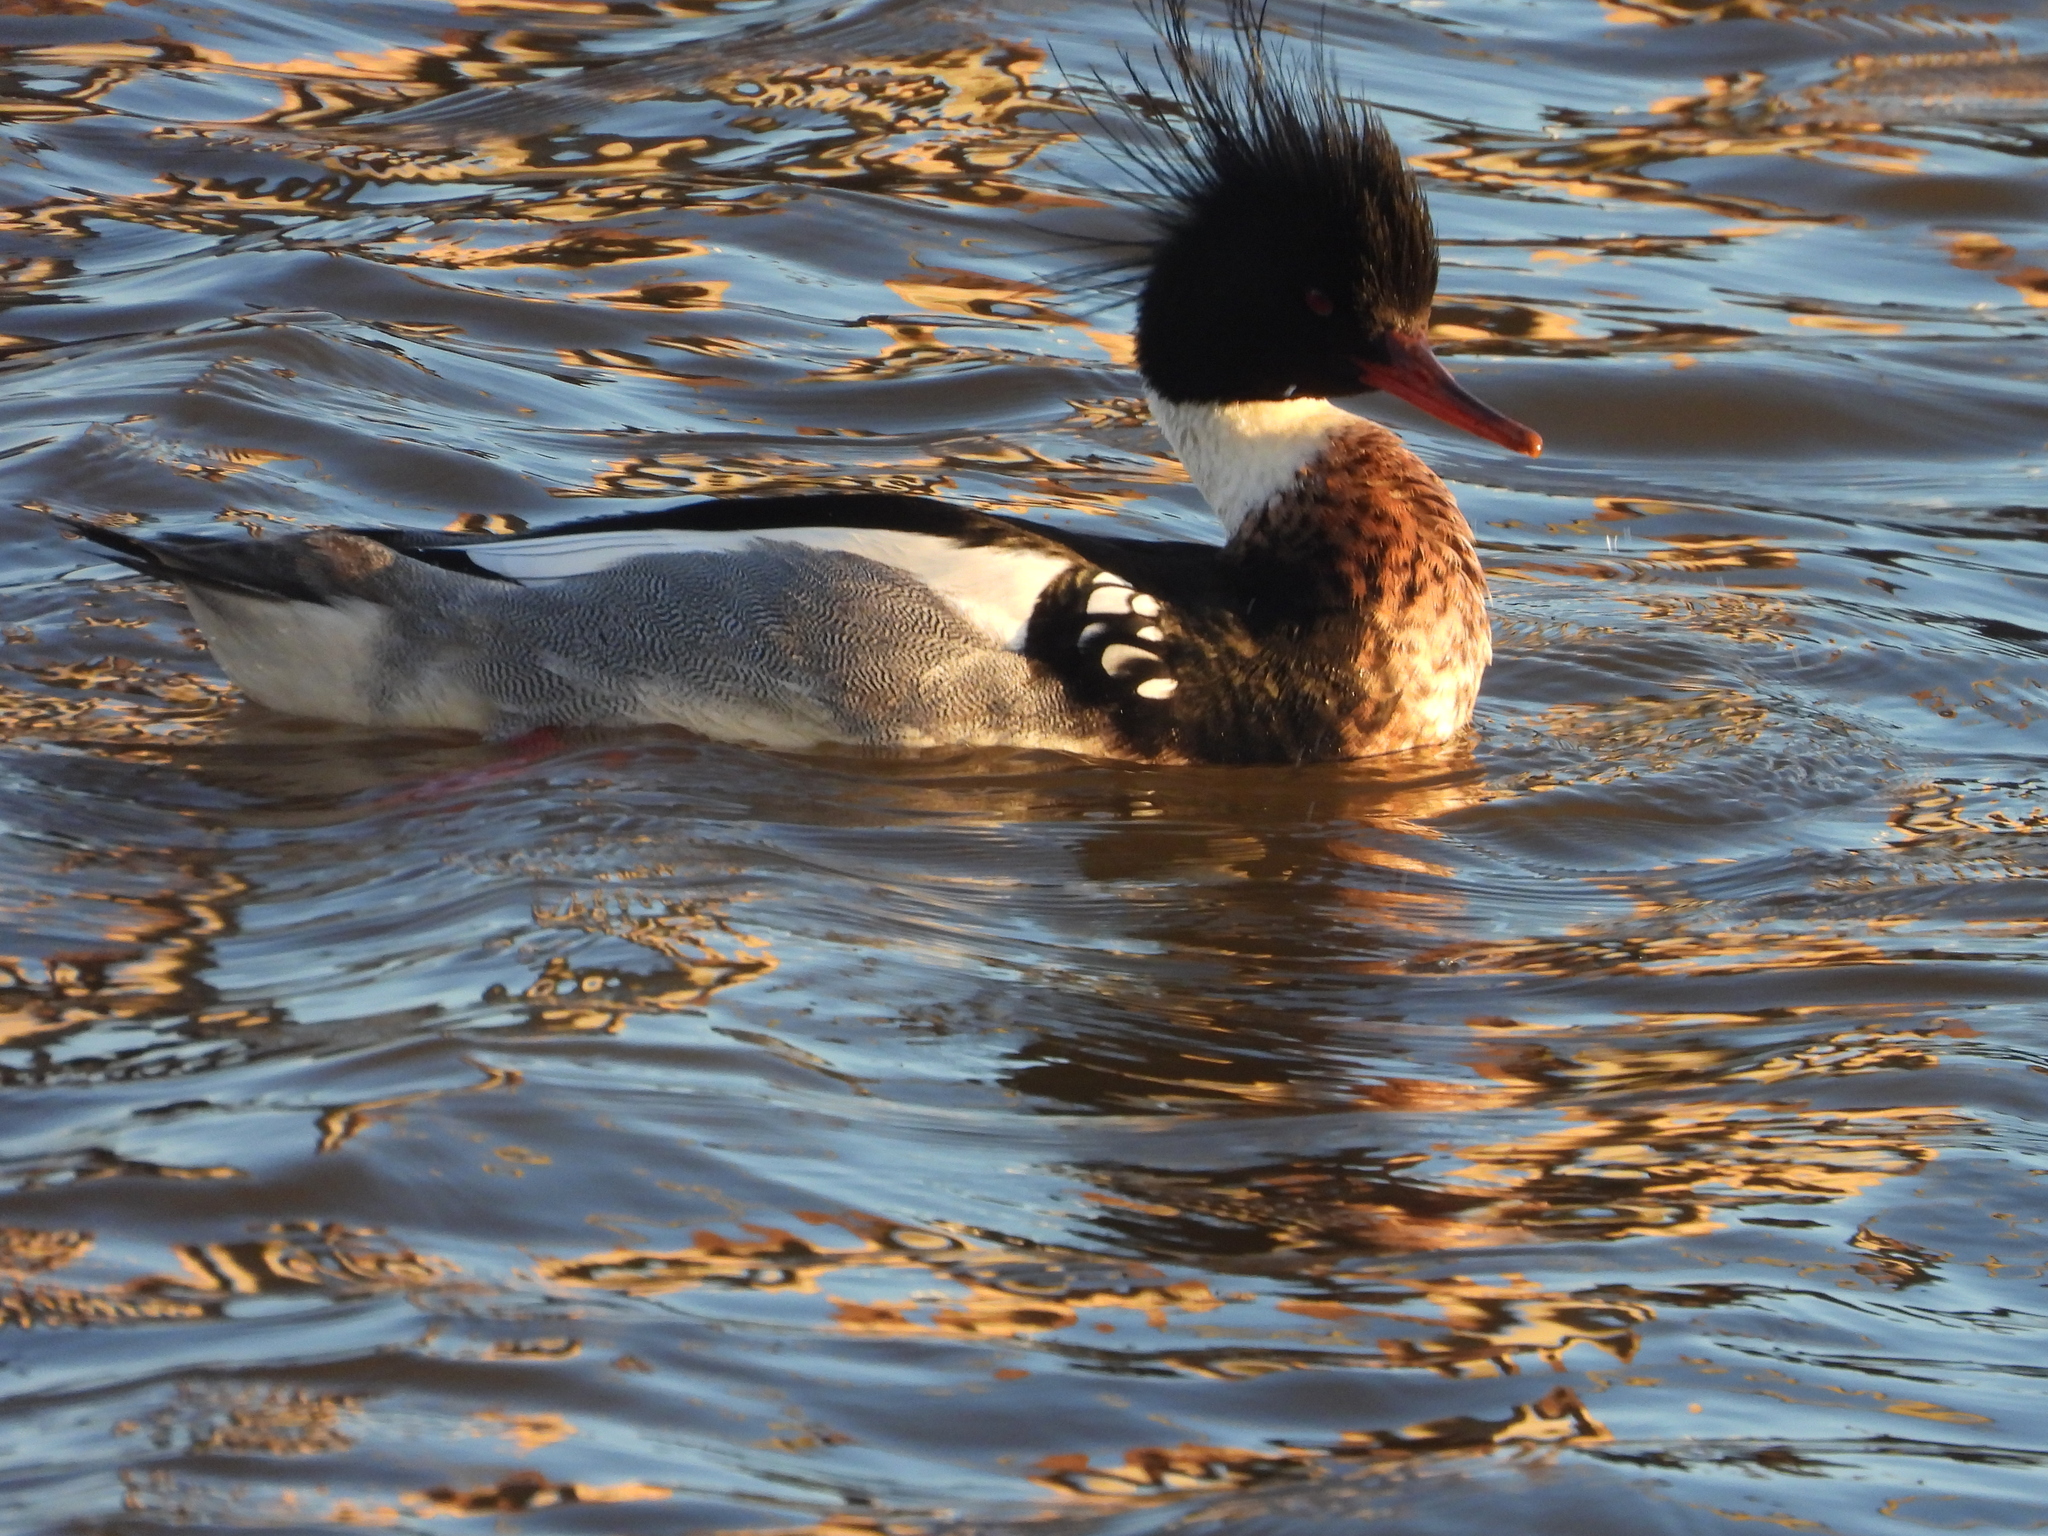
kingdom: Animalia
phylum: Chordata
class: Aves
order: Anseriformes
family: Anatidae
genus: Mergus
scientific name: Mergus serrator
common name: Red-breasted merganser
